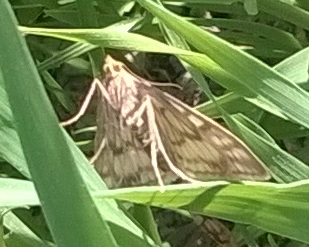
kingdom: Animalia
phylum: Arthropoda
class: Insecta
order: Lepidoptera
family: Crambidae
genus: Sitochroa
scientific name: Sitochroa verticalis
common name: Lesser pearl
